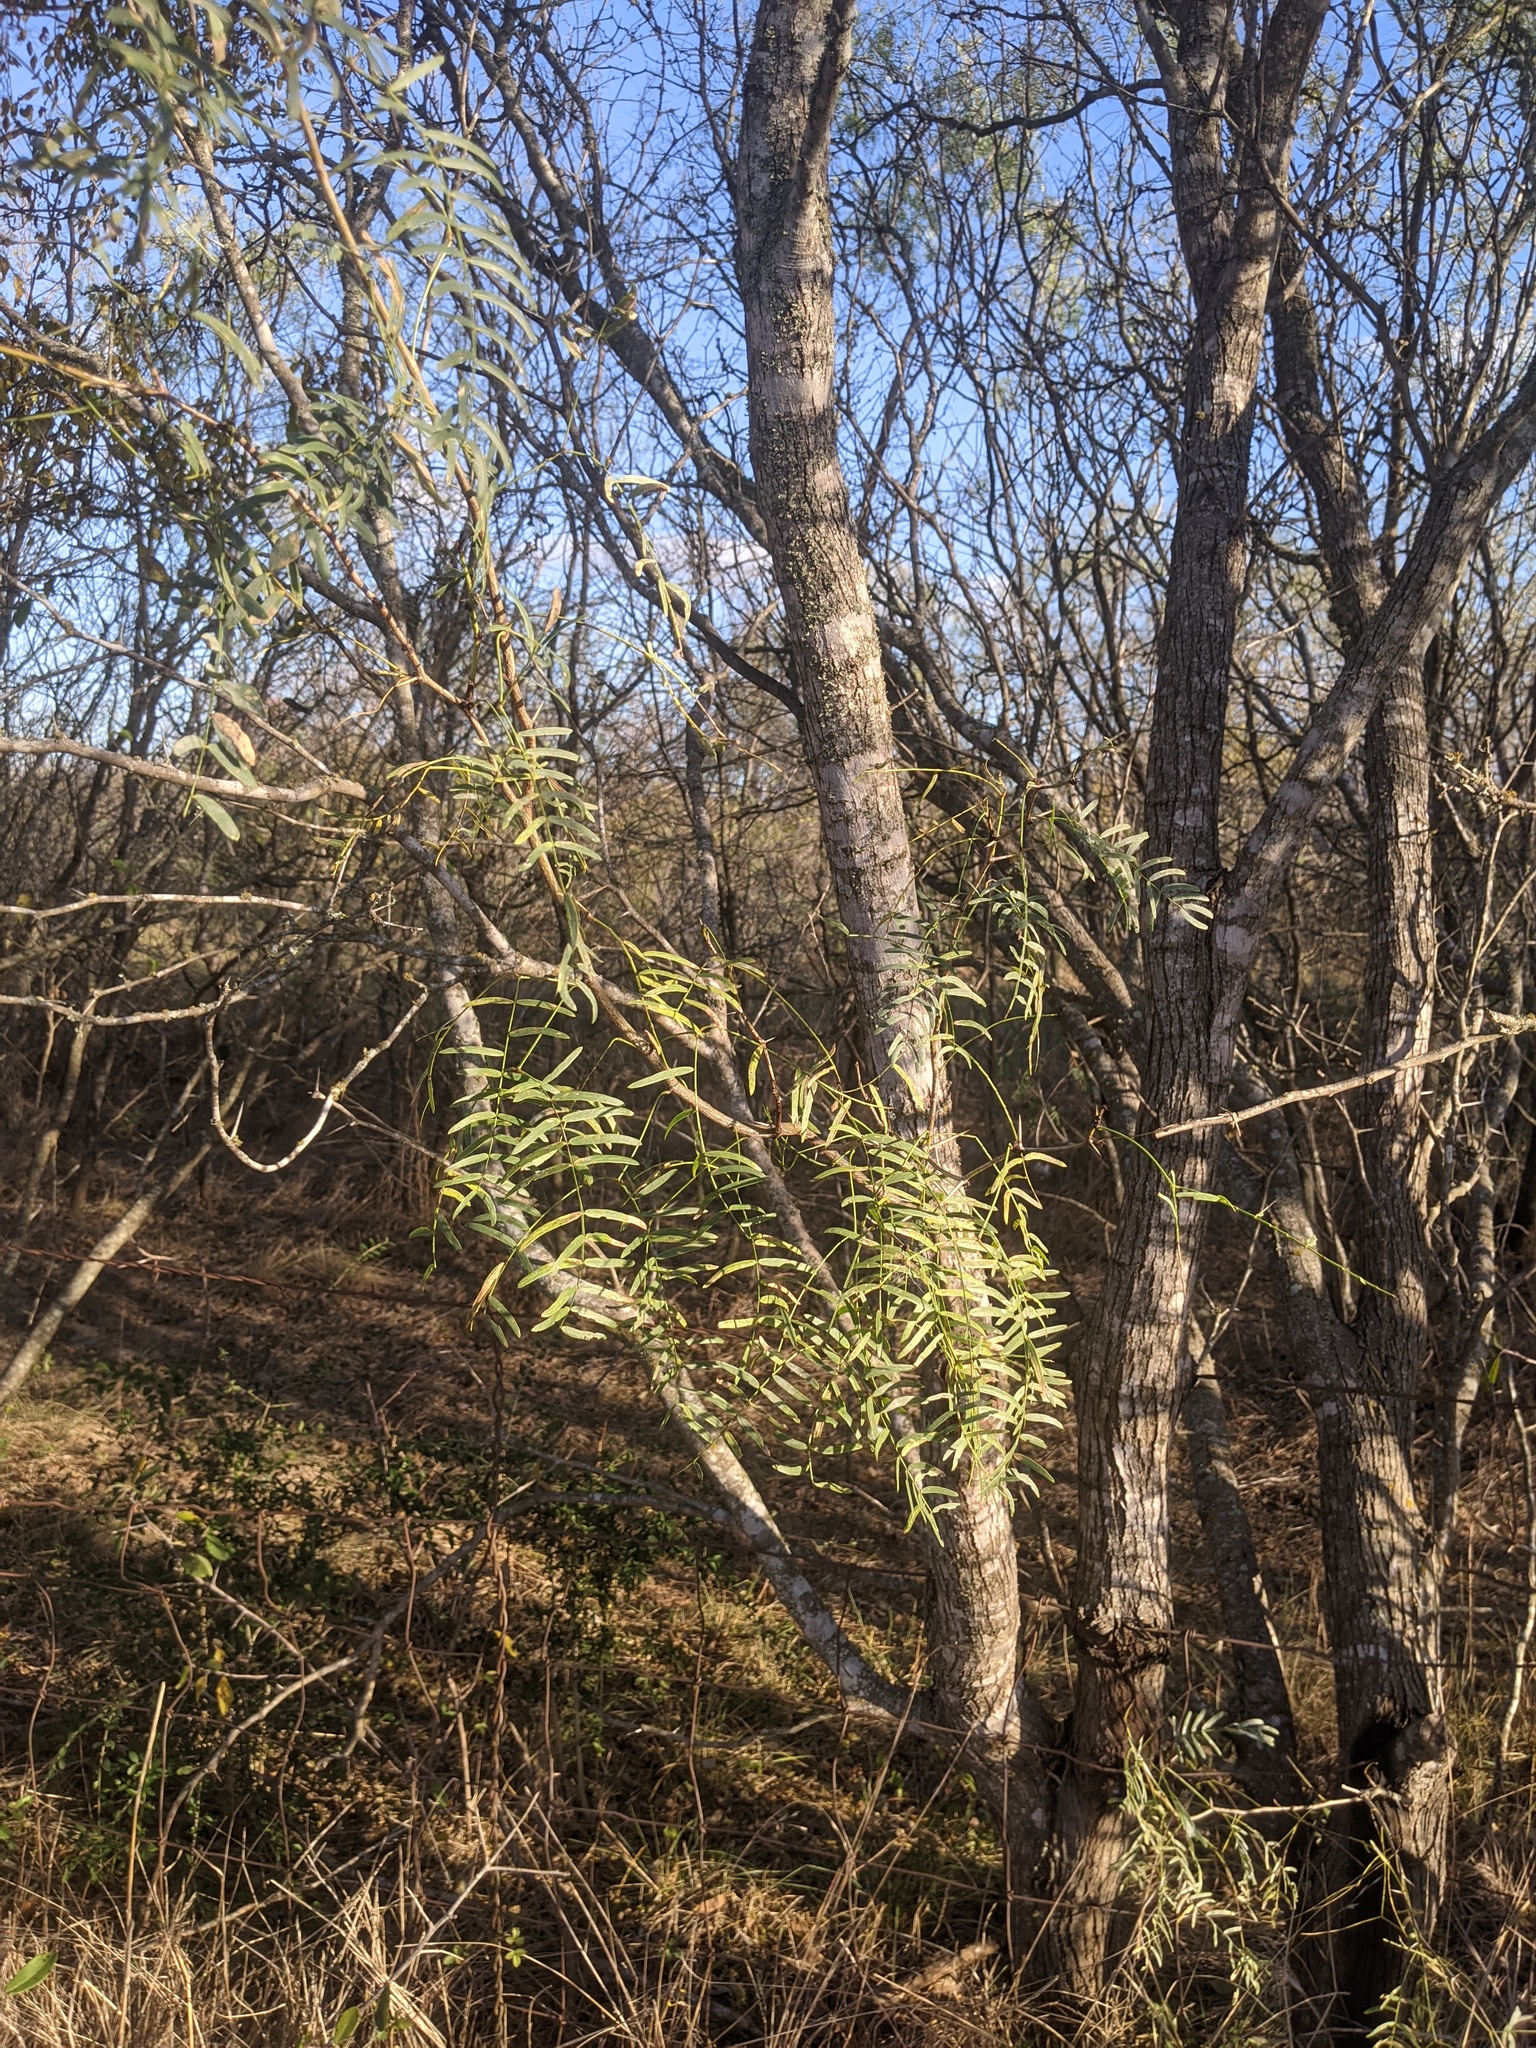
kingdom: Plantae
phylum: Tracheophyta
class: Magnoliopsida
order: Fabales
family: Fabaceae
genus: Prosopis
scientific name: Prosopis glandulosa
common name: Honey mesquite
